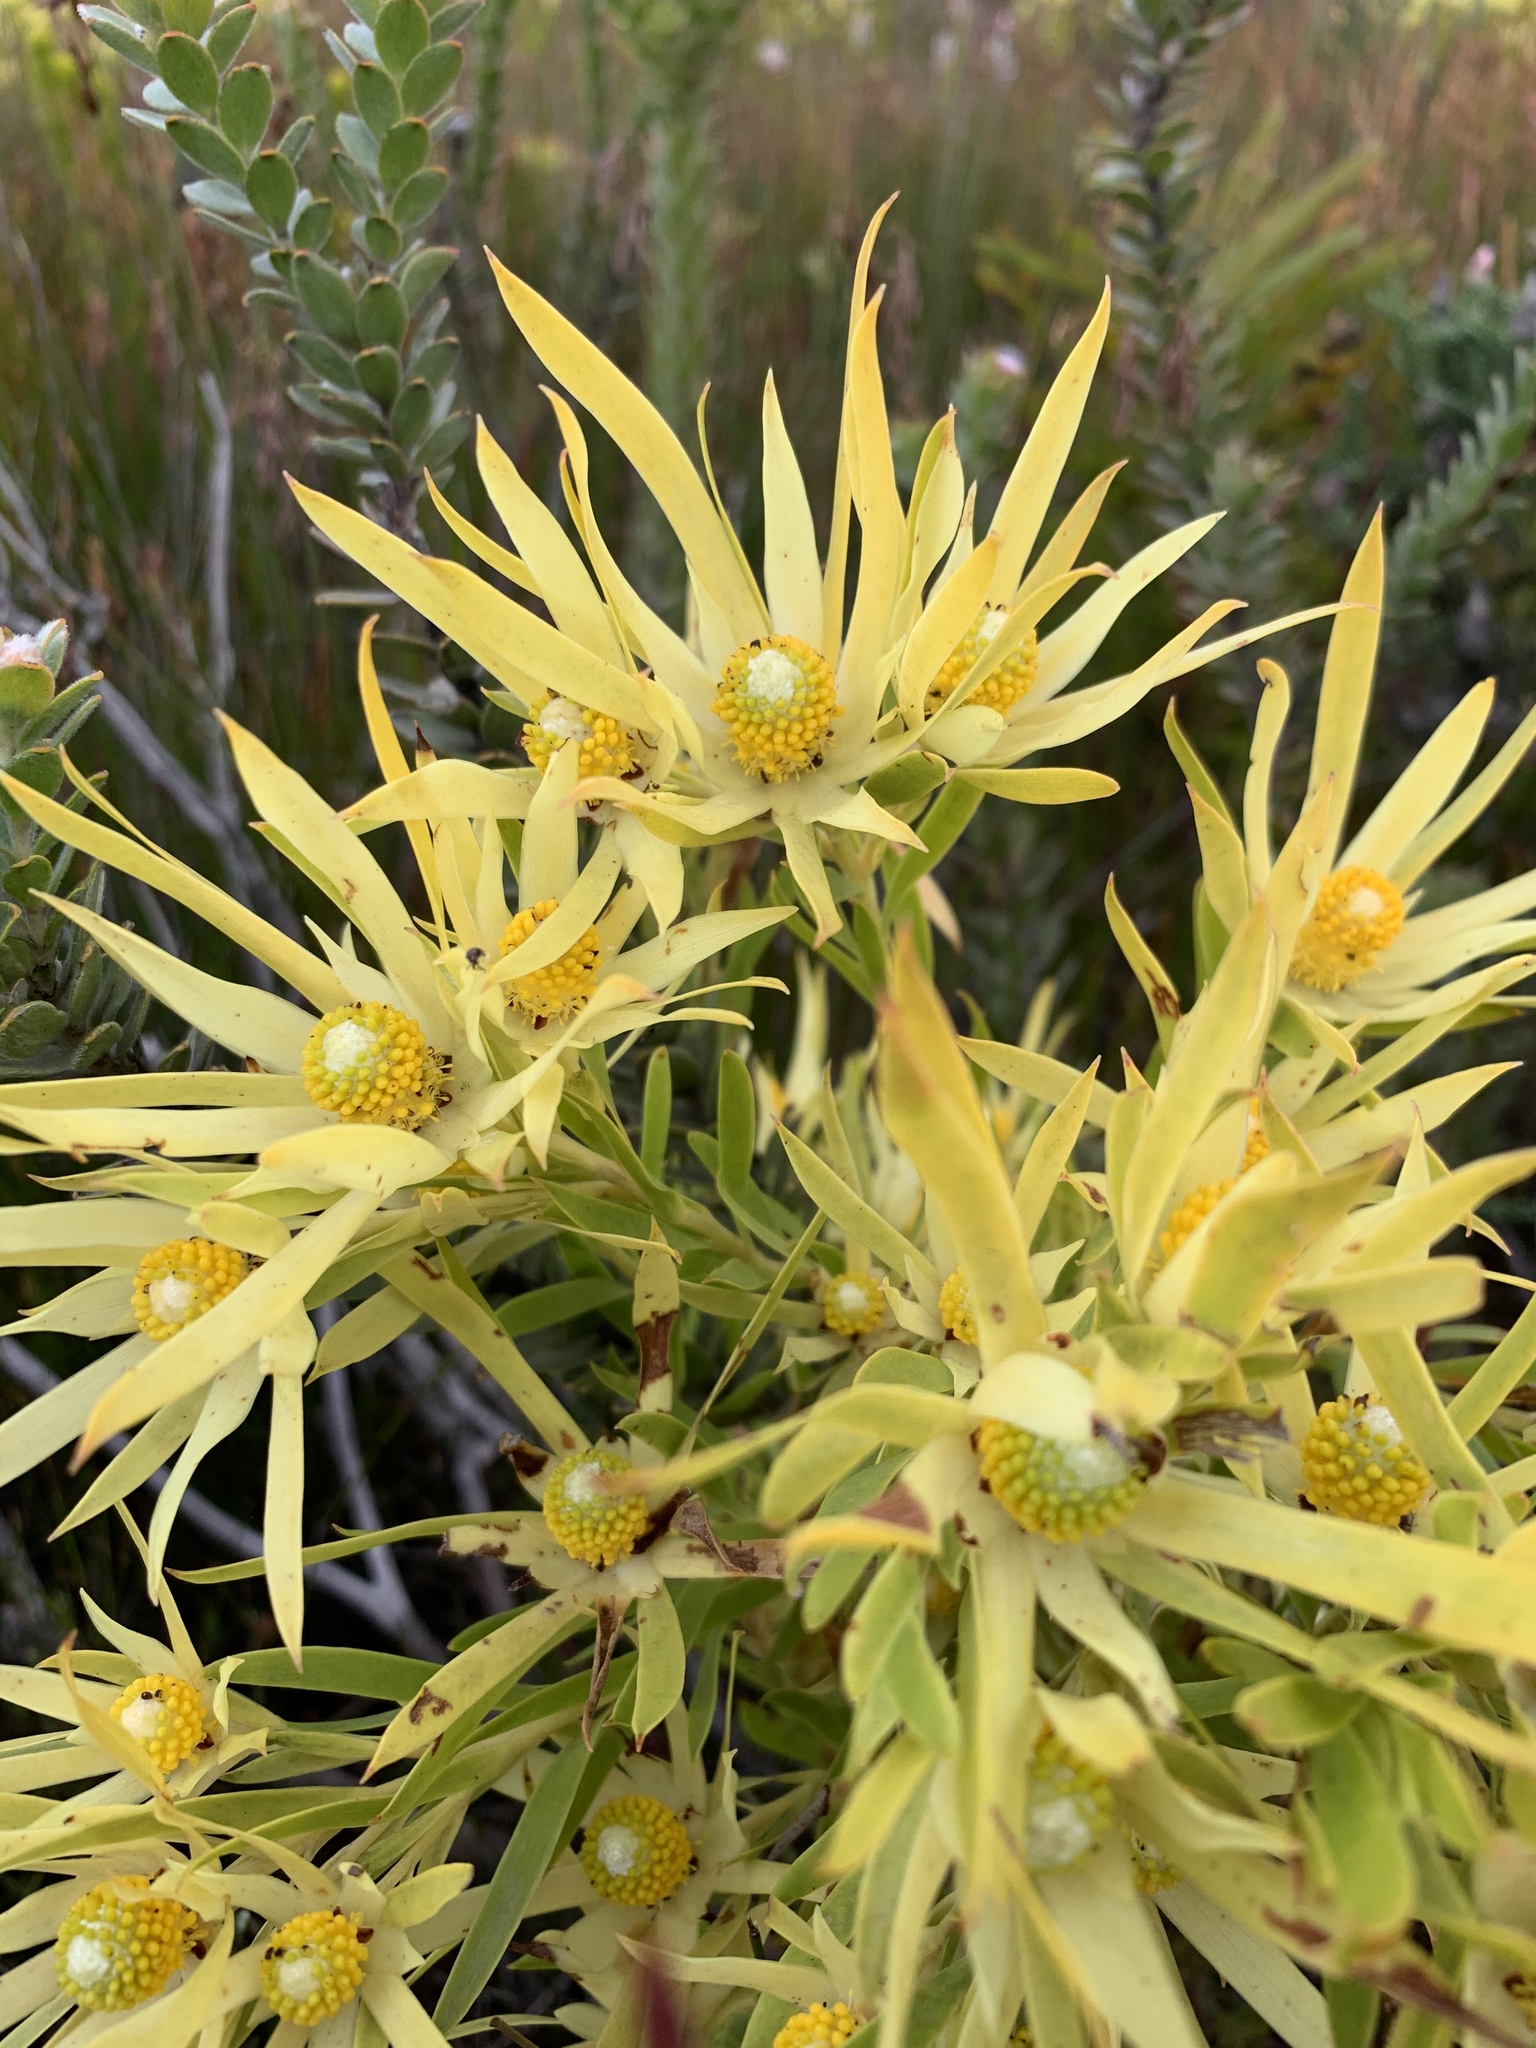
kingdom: Plantae
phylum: Tracheophyta
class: Magnoliopsida
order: Proteales
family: Proteaceae
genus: Leucadendron
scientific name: Leucadendron xanthoconus
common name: Sickle-leaf conebush
